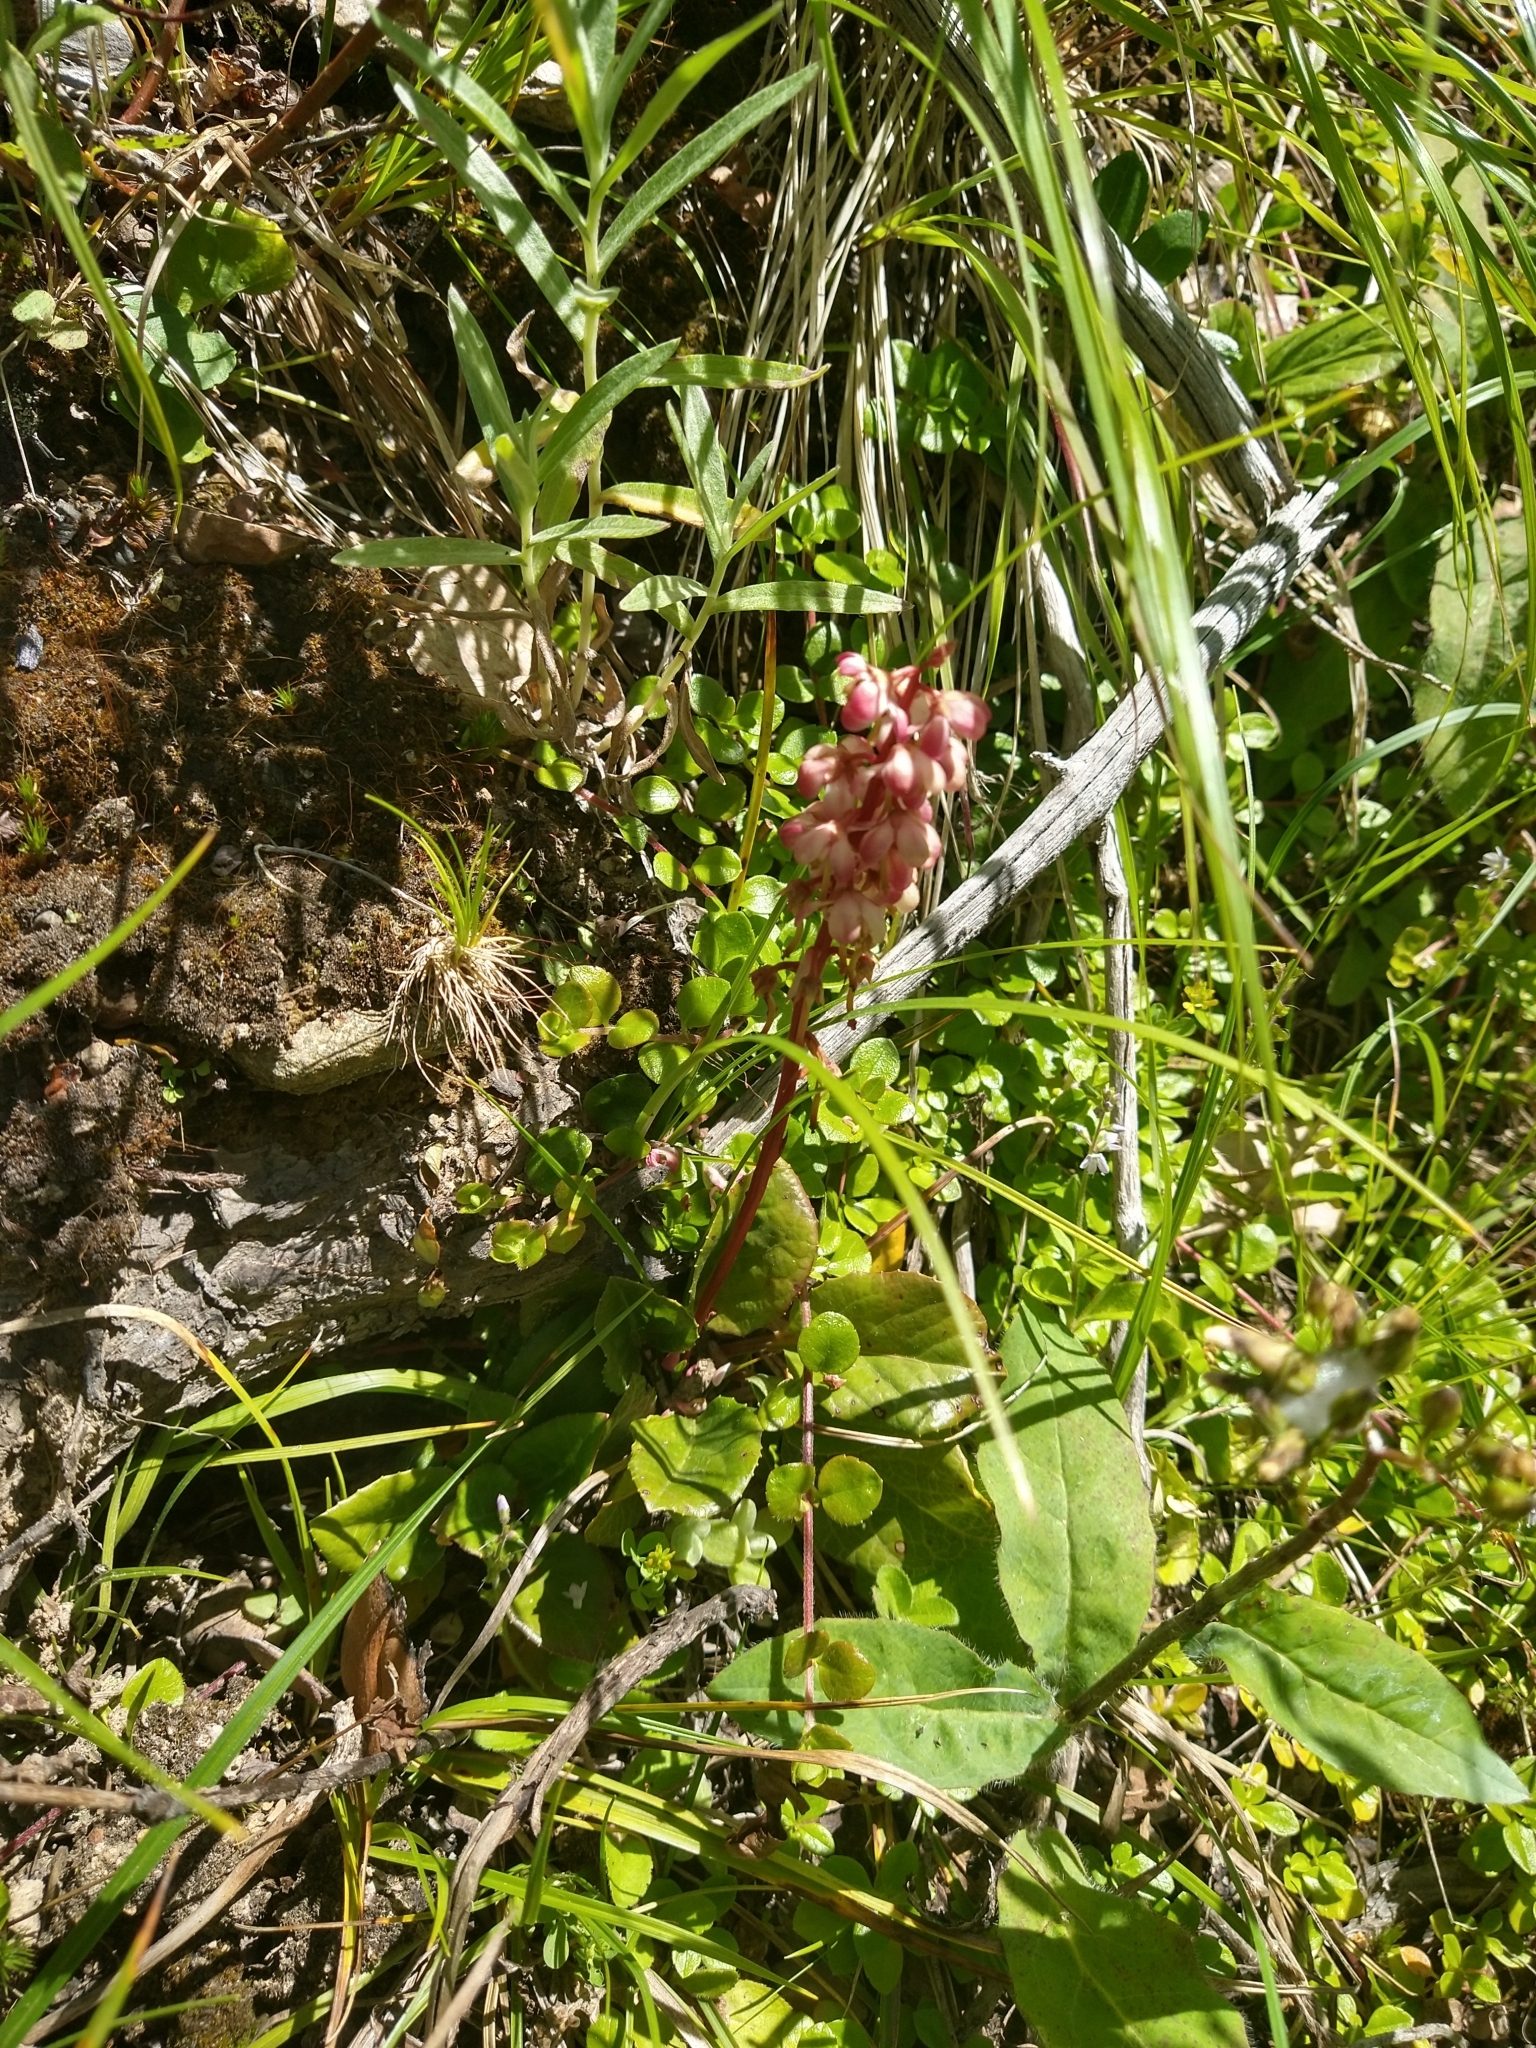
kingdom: Plantae
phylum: Tracheophyta
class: Magnoliopsida
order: Ericales
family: Ericaceae
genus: Pyrola
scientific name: Pyrola asarifolia
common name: Bog wintergreen
